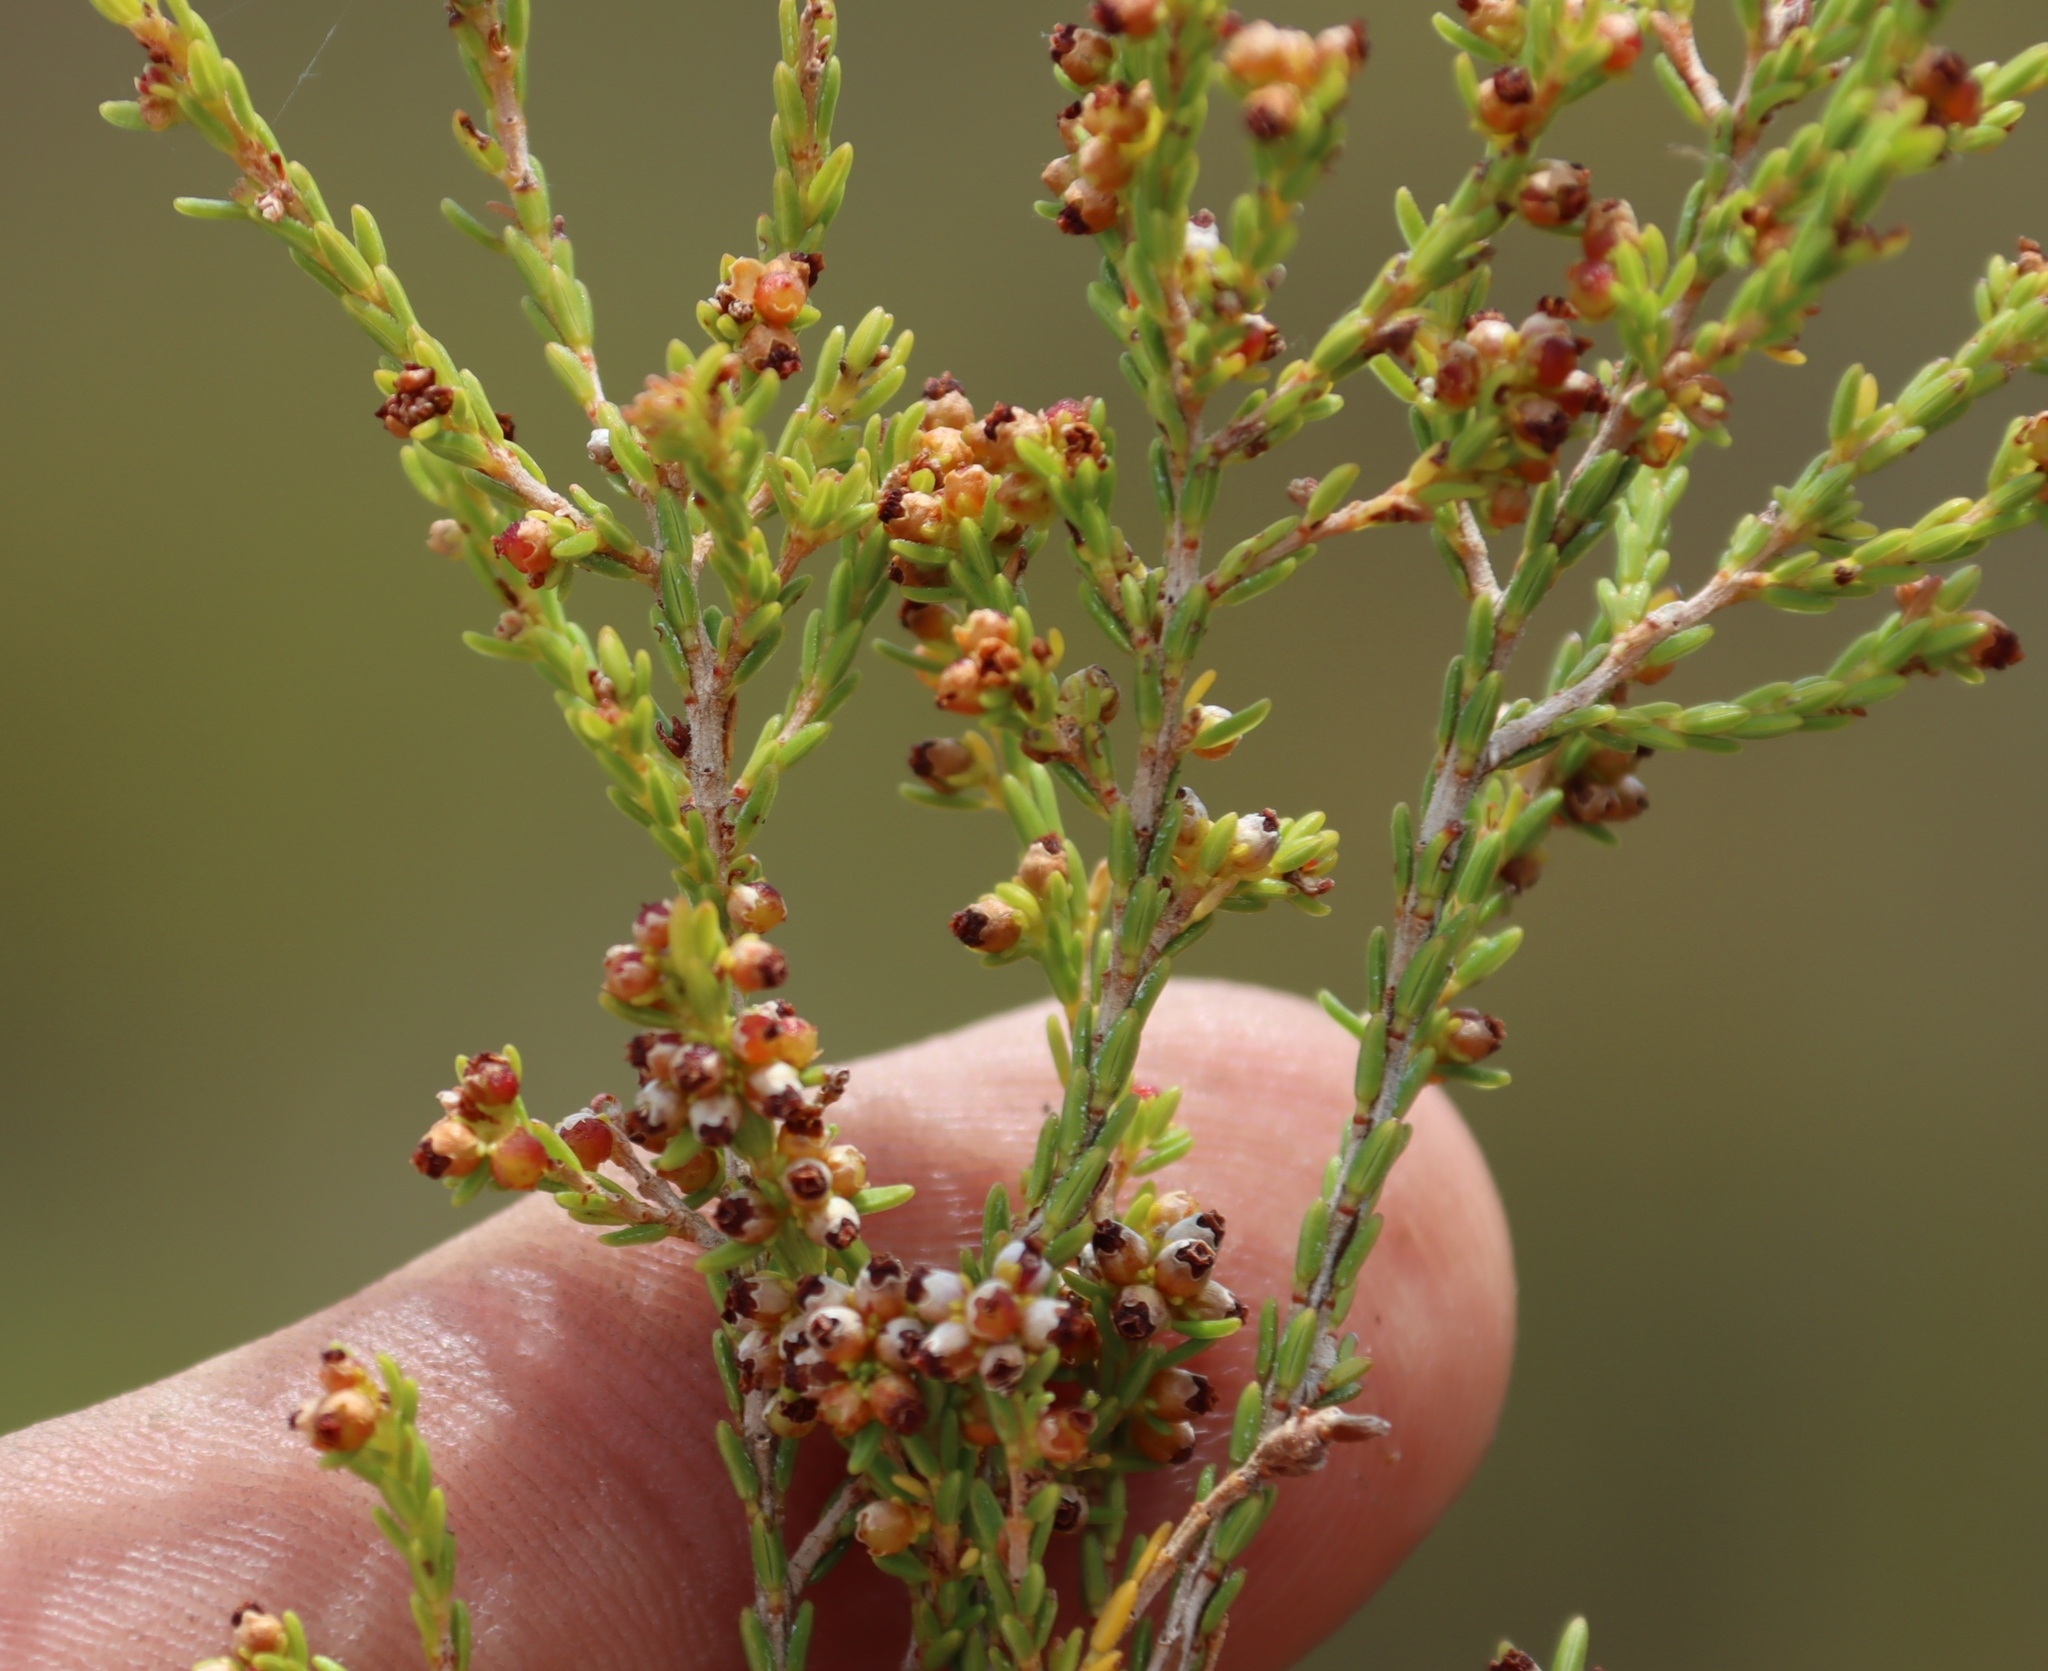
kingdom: Plantae
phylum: Tracheophyta
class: Magnoliopsida
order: Ericales
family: Ericaceae
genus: Erica
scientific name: Erica axillaris
